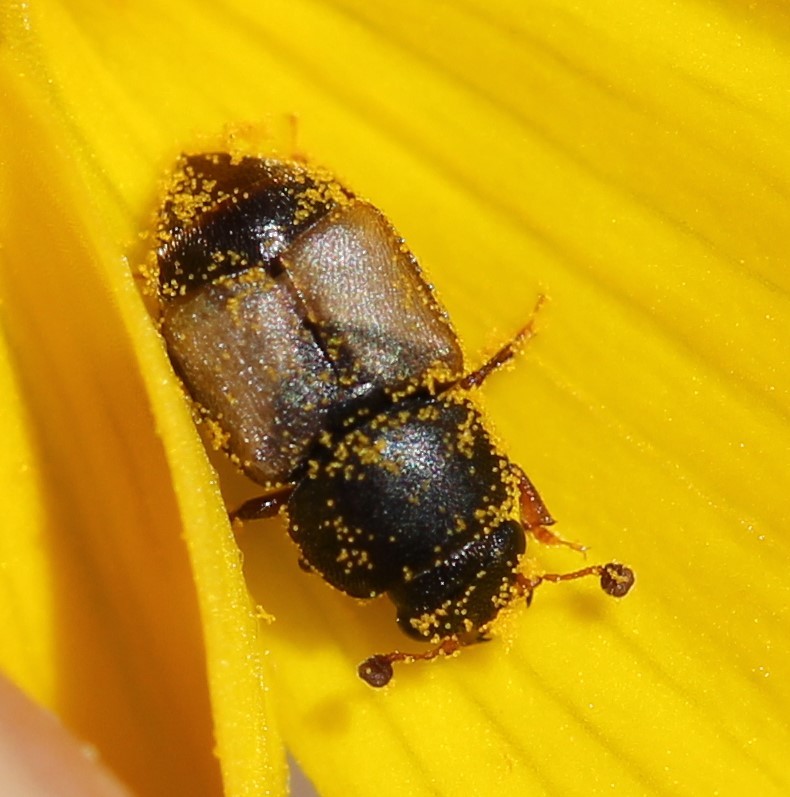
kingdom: Animalia
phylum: Arthropoda
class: Insecta
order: Coleoptera
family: Nitidulidae
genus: Nitops
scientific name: Nitops pallipennis
